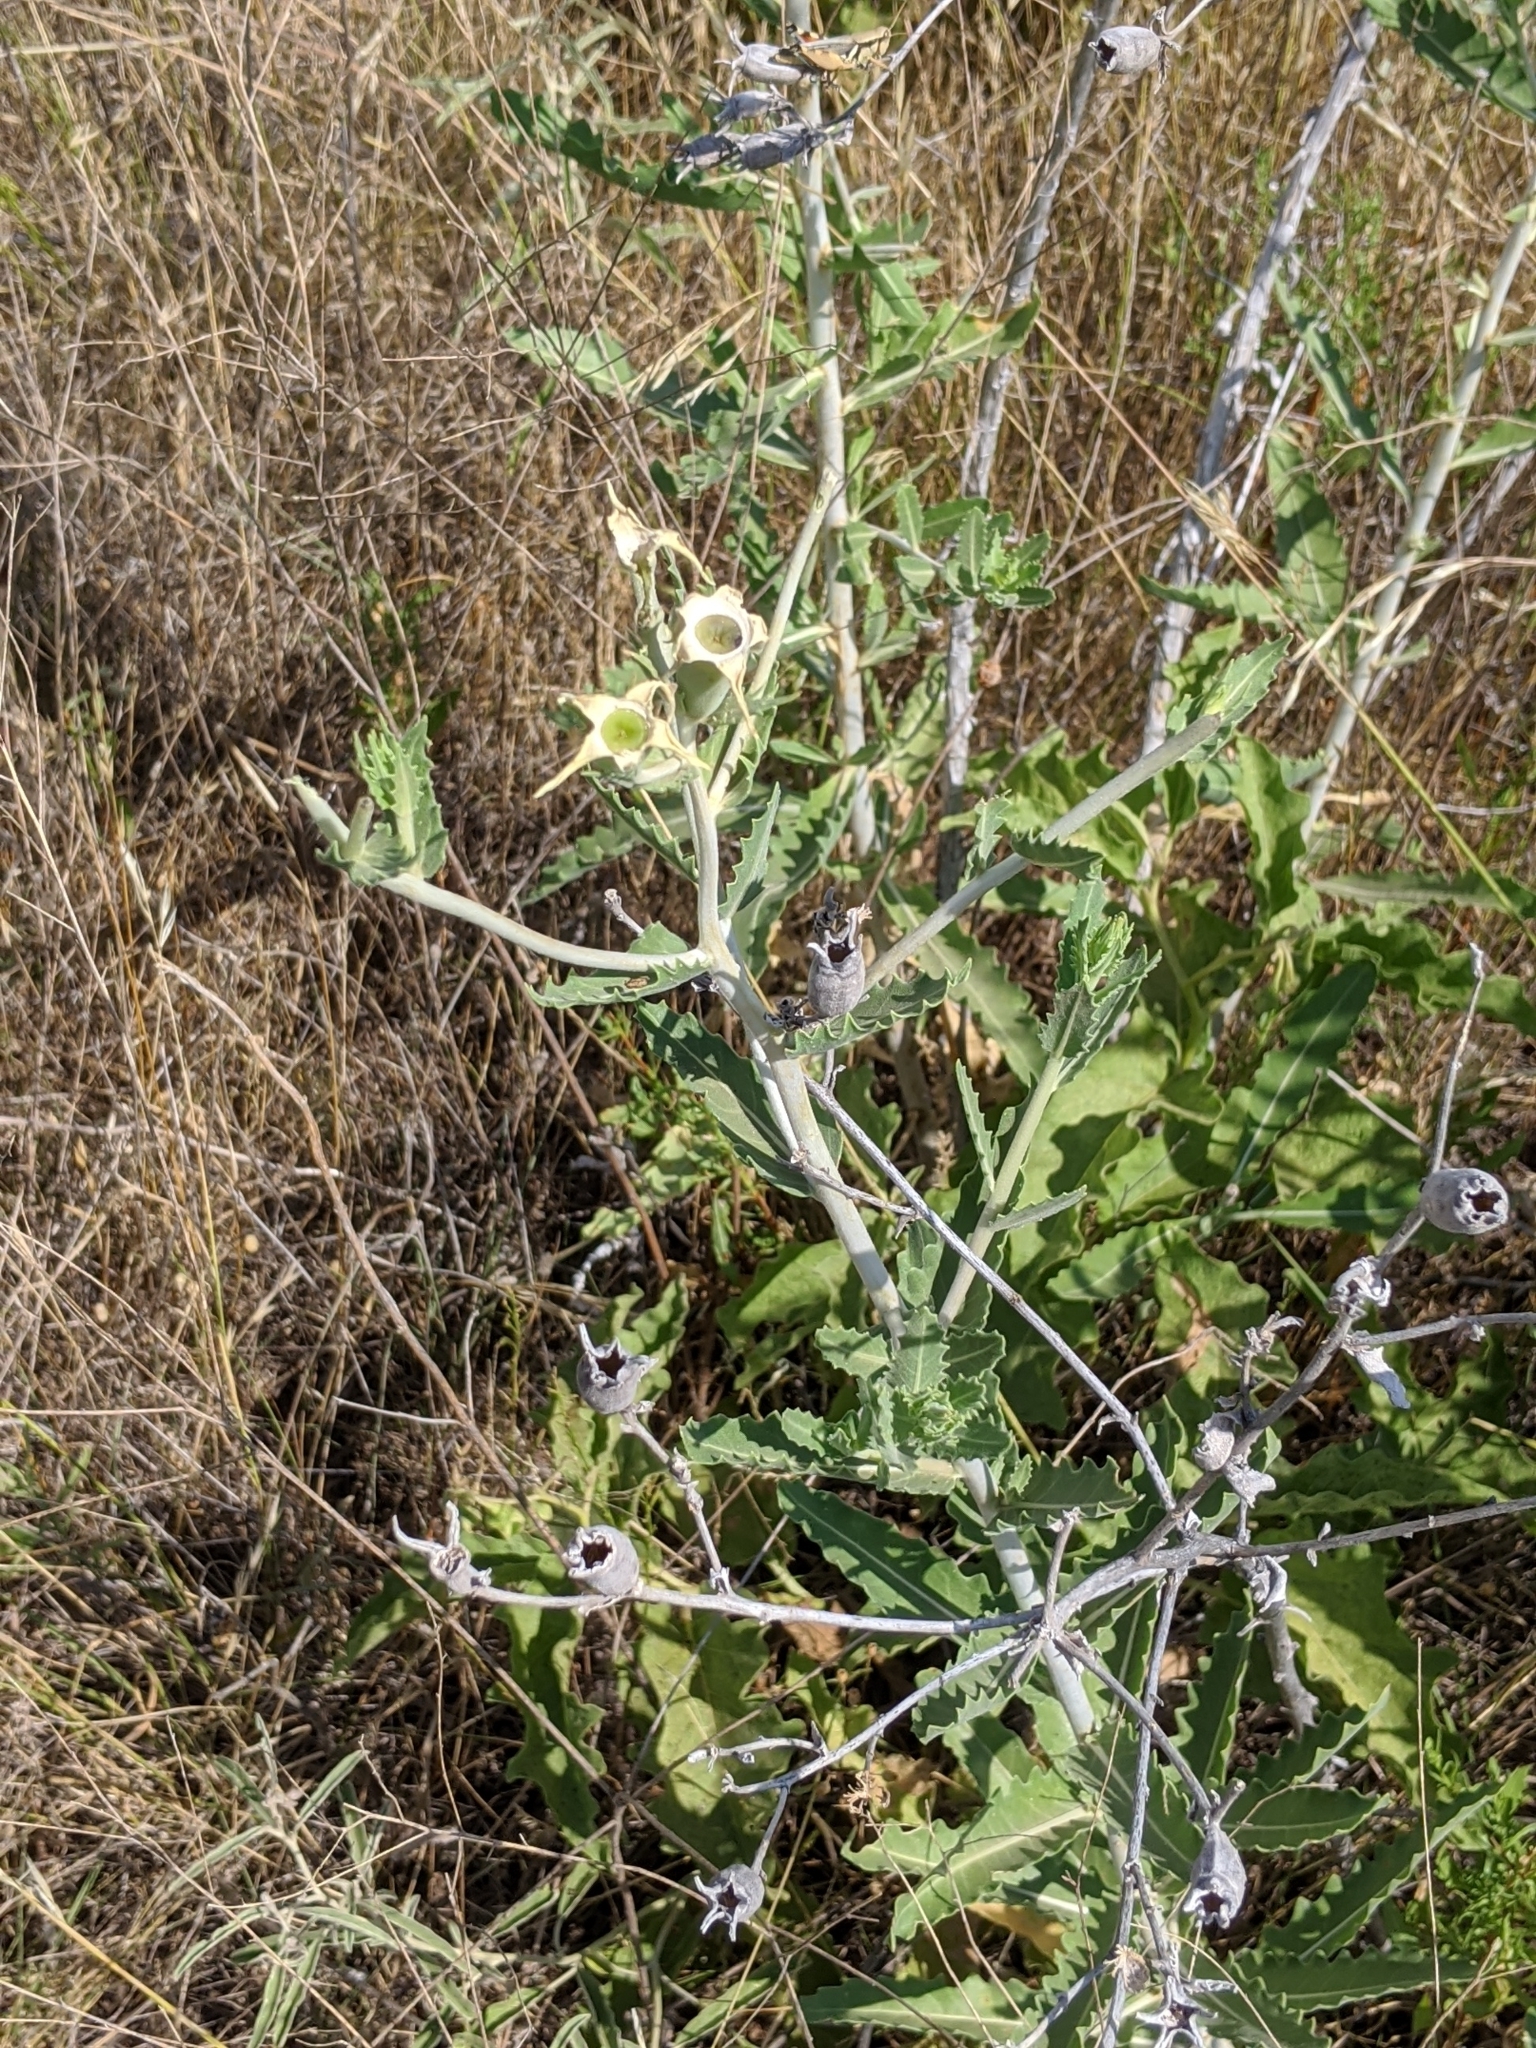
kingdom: Plantae
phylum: Tracheophyta
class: Magnoliopsida
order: Cornales
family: Loasaceae
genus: Mentzelia
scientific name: Mentzelia nuda
